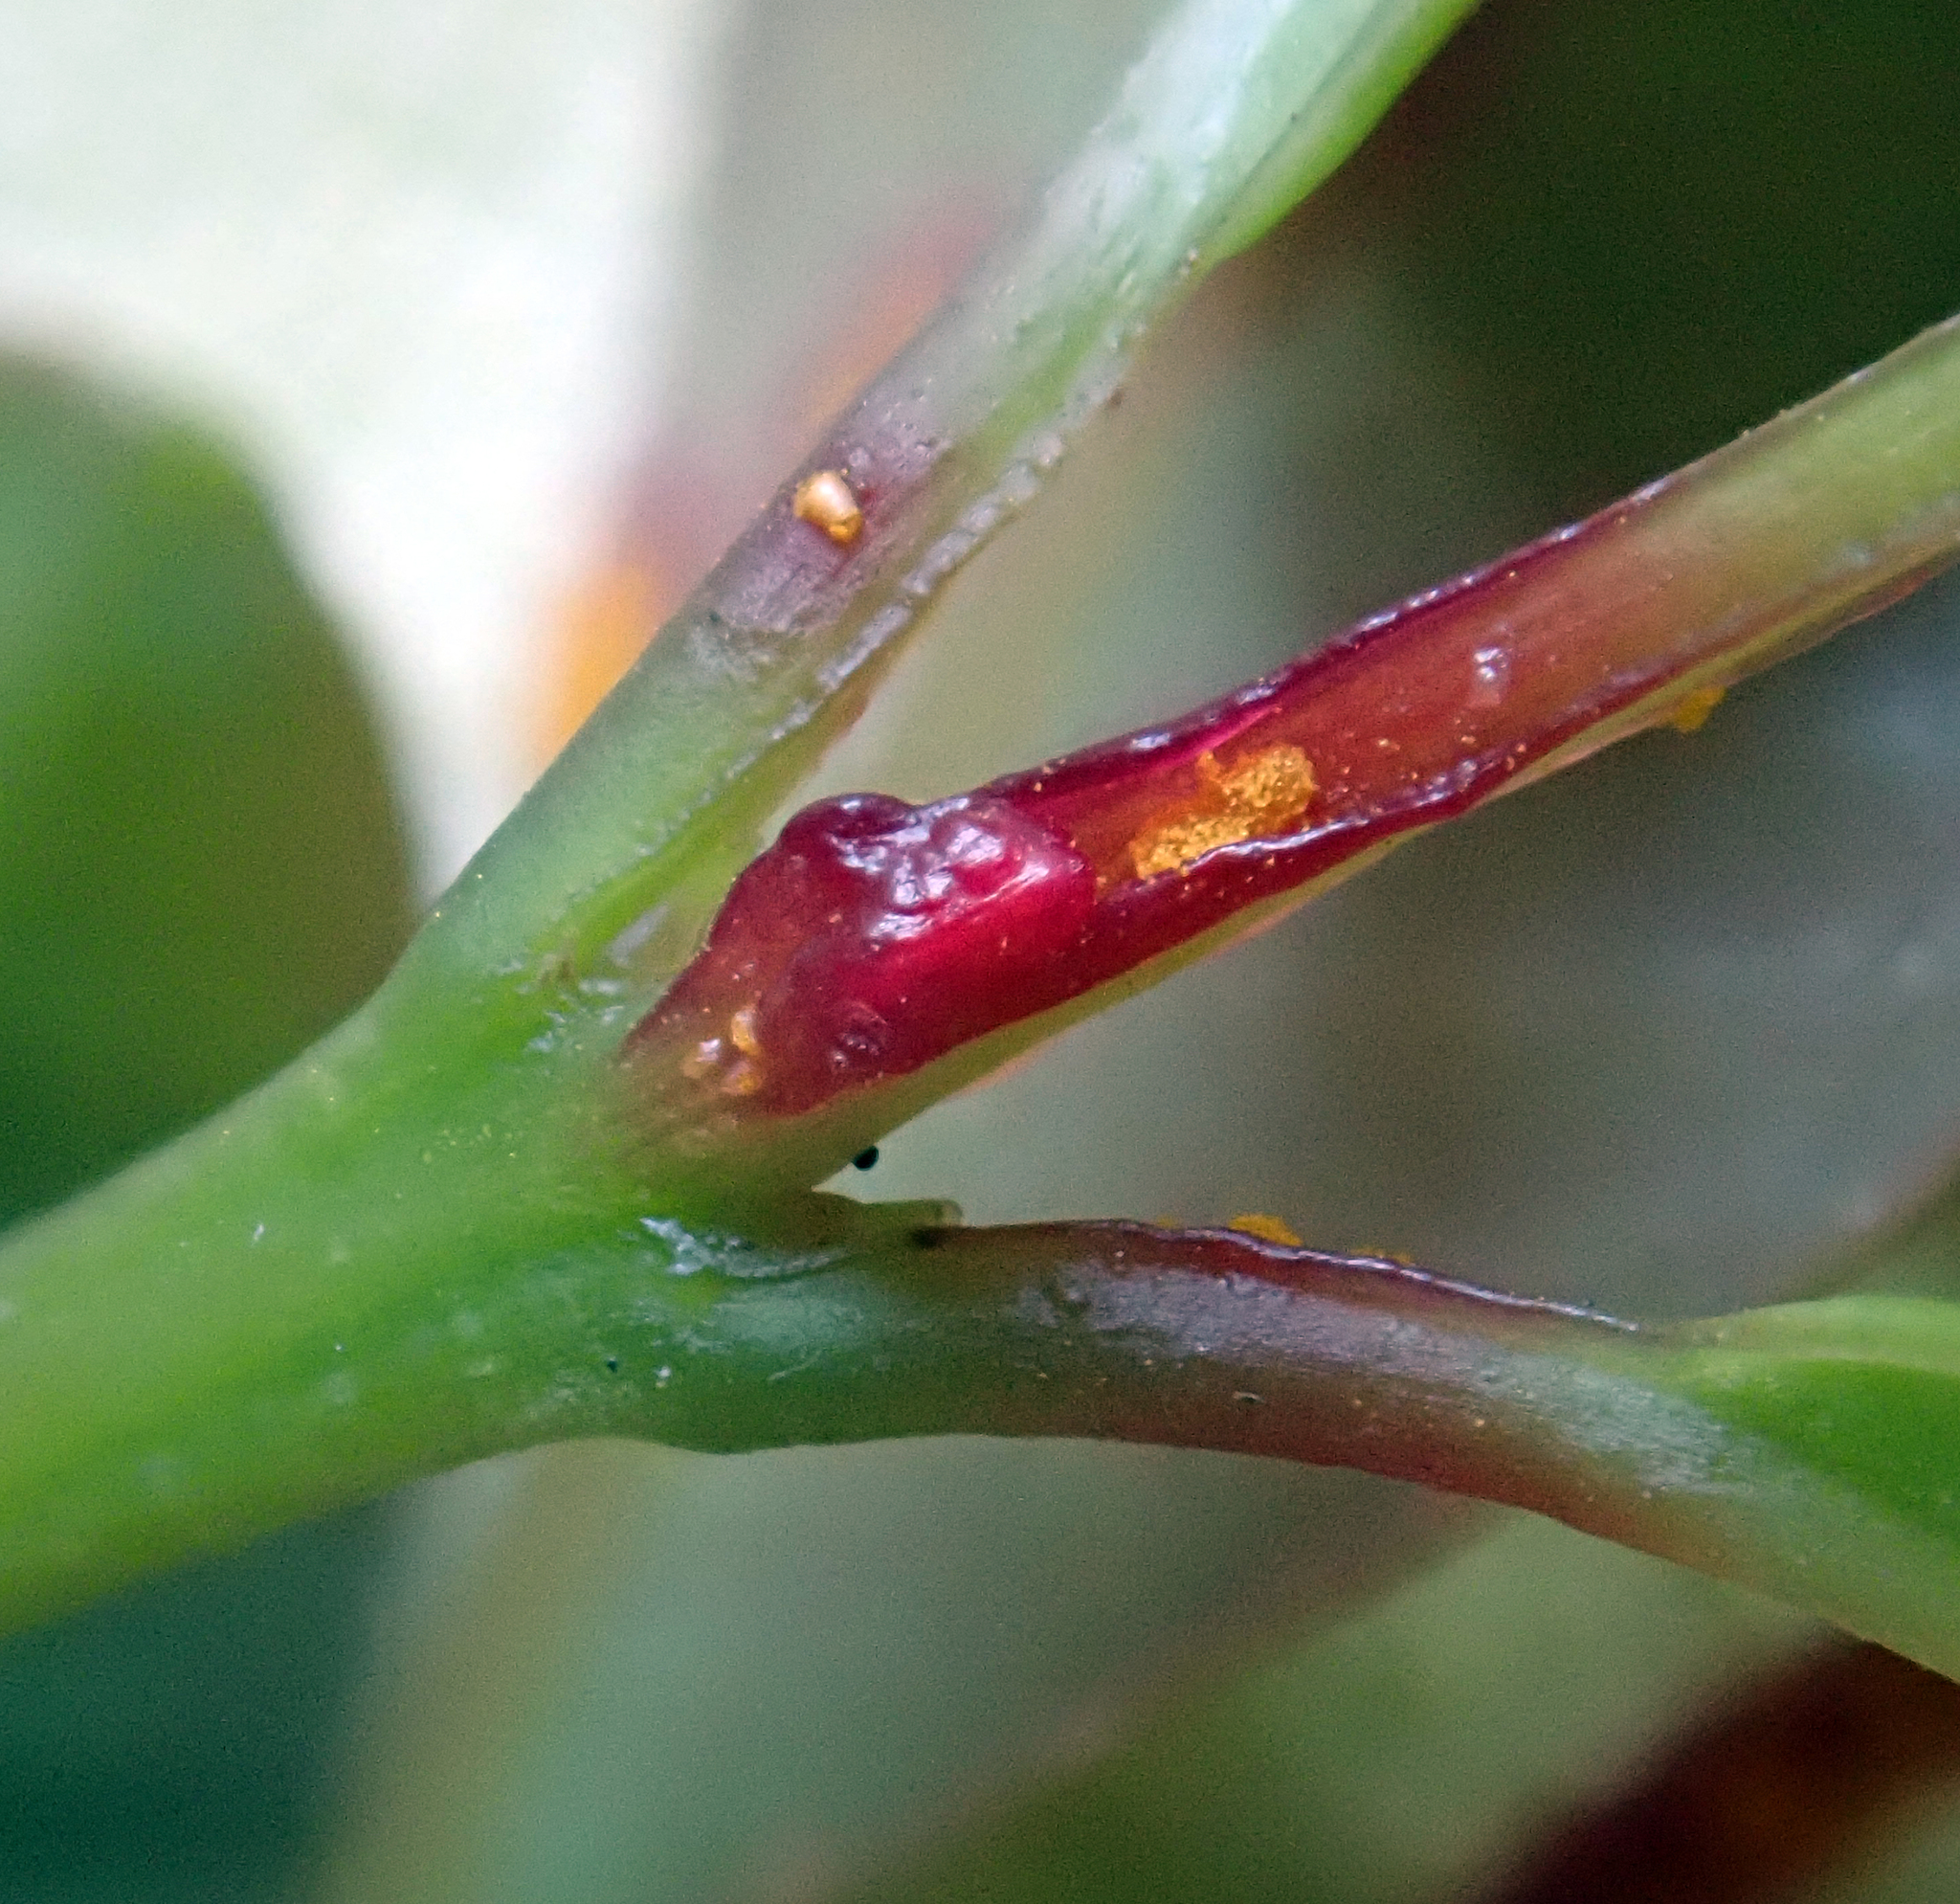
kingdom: Fungi
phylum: Basidiomycota
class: Pucciniomycetes
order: Pucciniales
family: Sphaerophragmiaceae
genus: Austropuccinia
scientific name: Austropuccinia psidii
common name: Myrtle rust
